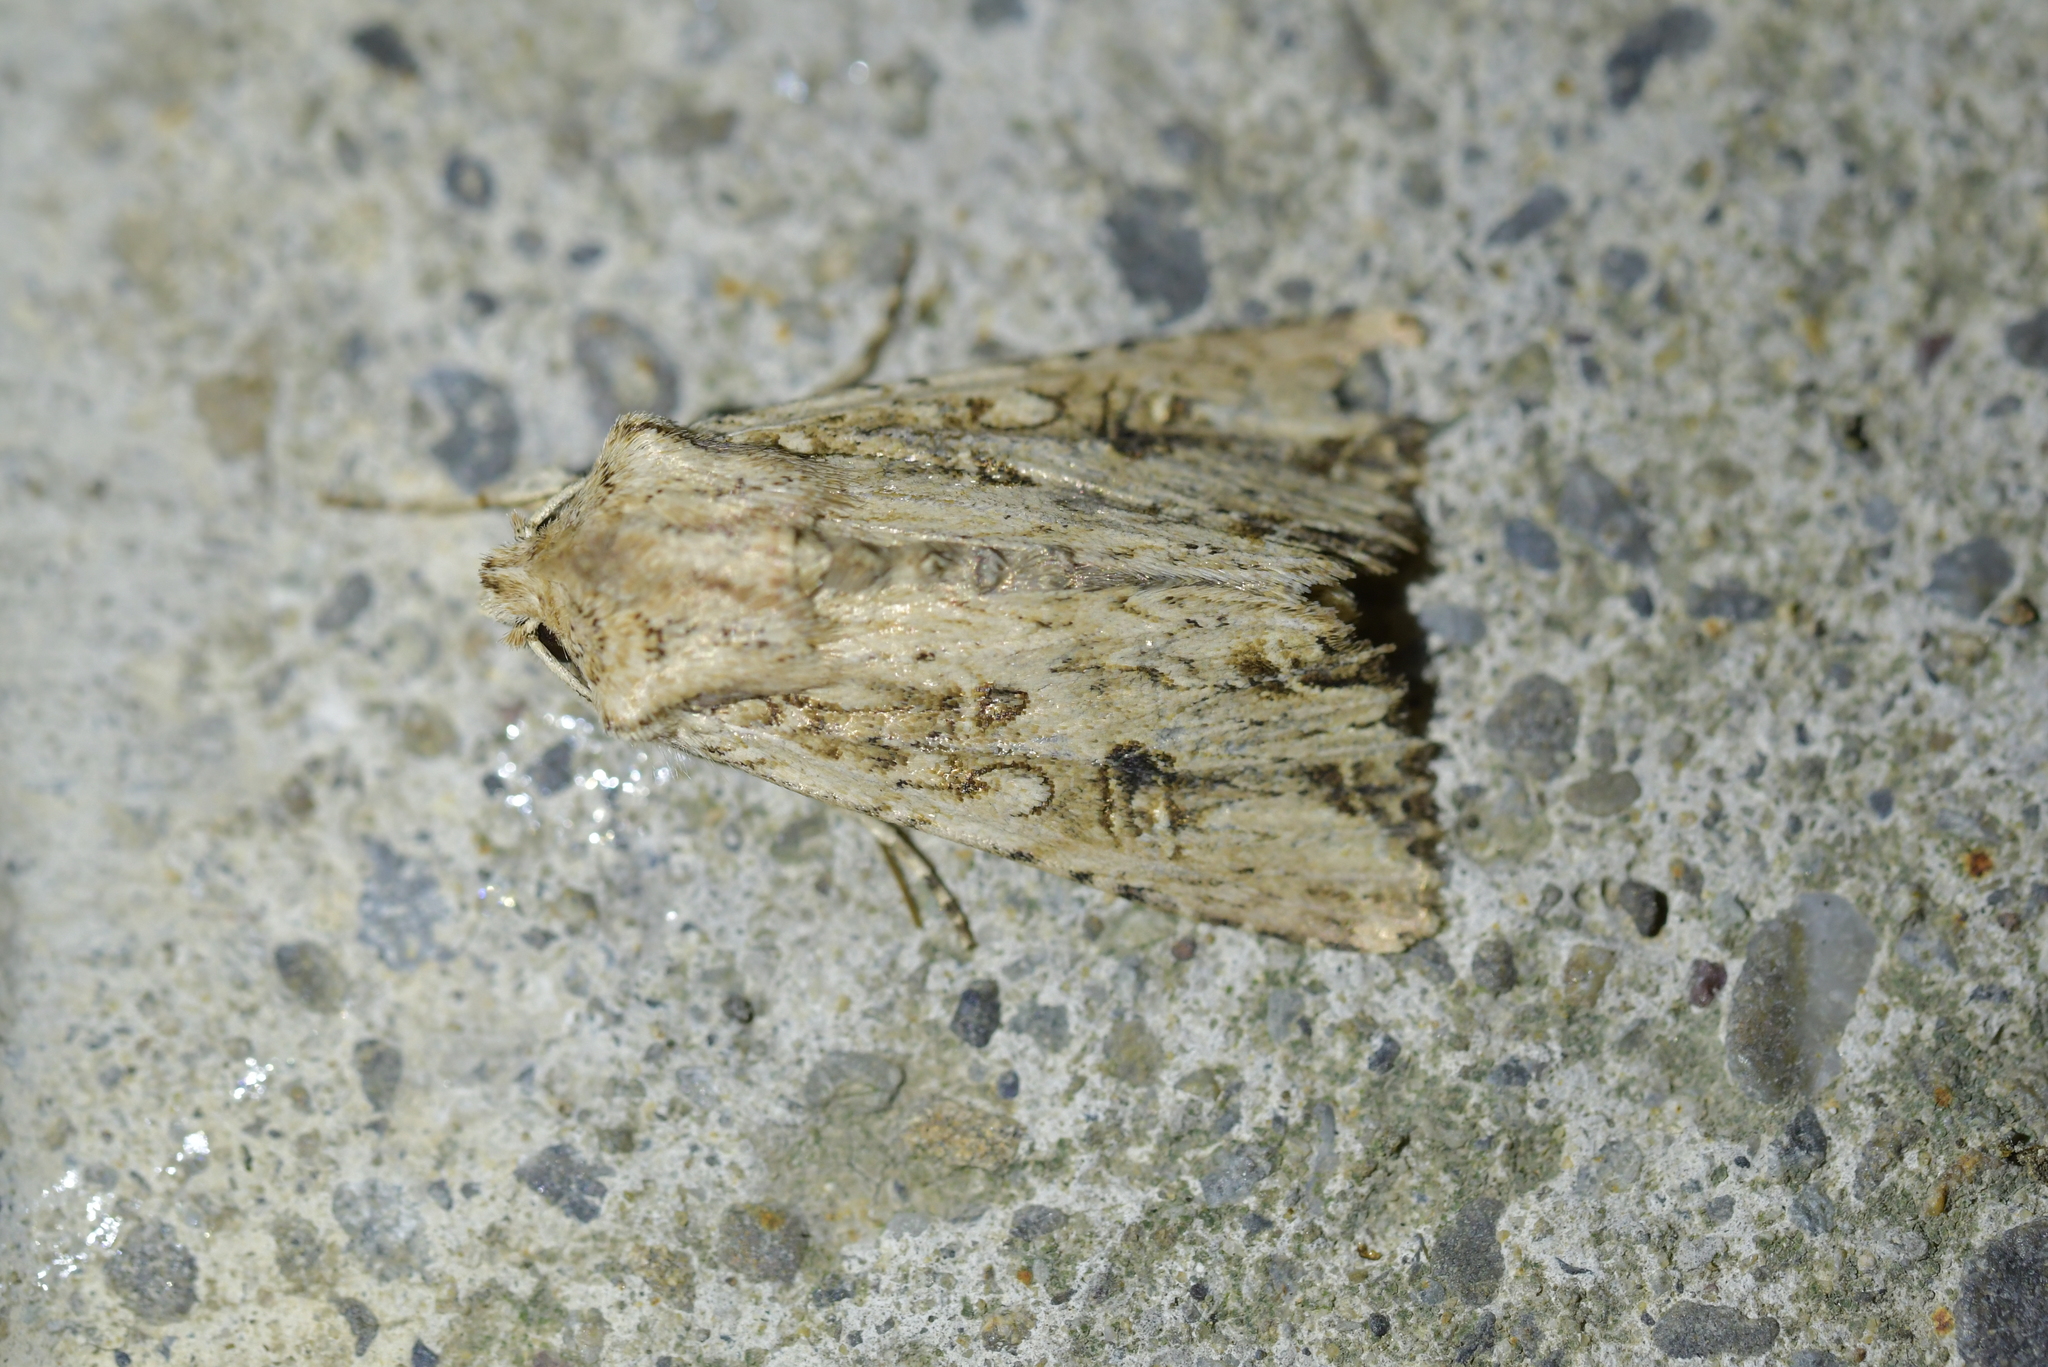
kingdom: Animalia
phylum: Arthropoda
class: Insecta
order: Lepidoptera
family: Noctuidae
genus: Ichneutica
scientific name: Ichneutica lignana
